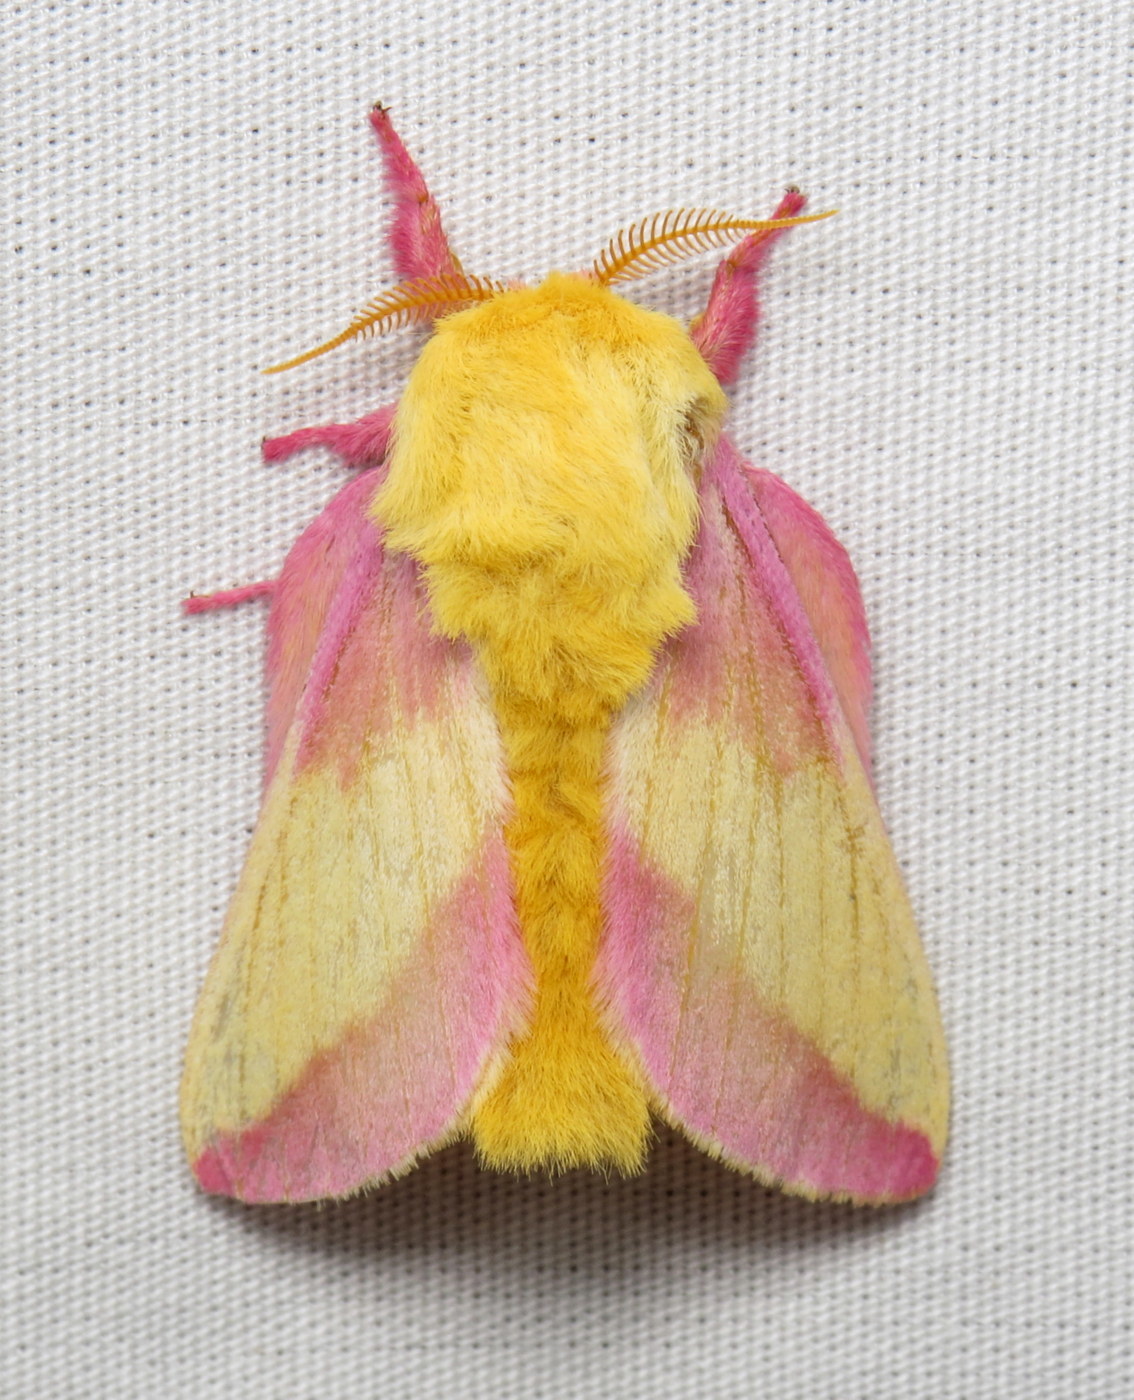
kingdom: Animalia
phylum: Arthropoda
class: Insecta
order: Lepidoptera
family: Saturniidae
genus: Dryocampa
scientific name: Dryocampa rubicunda
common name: Rosy maple moth
